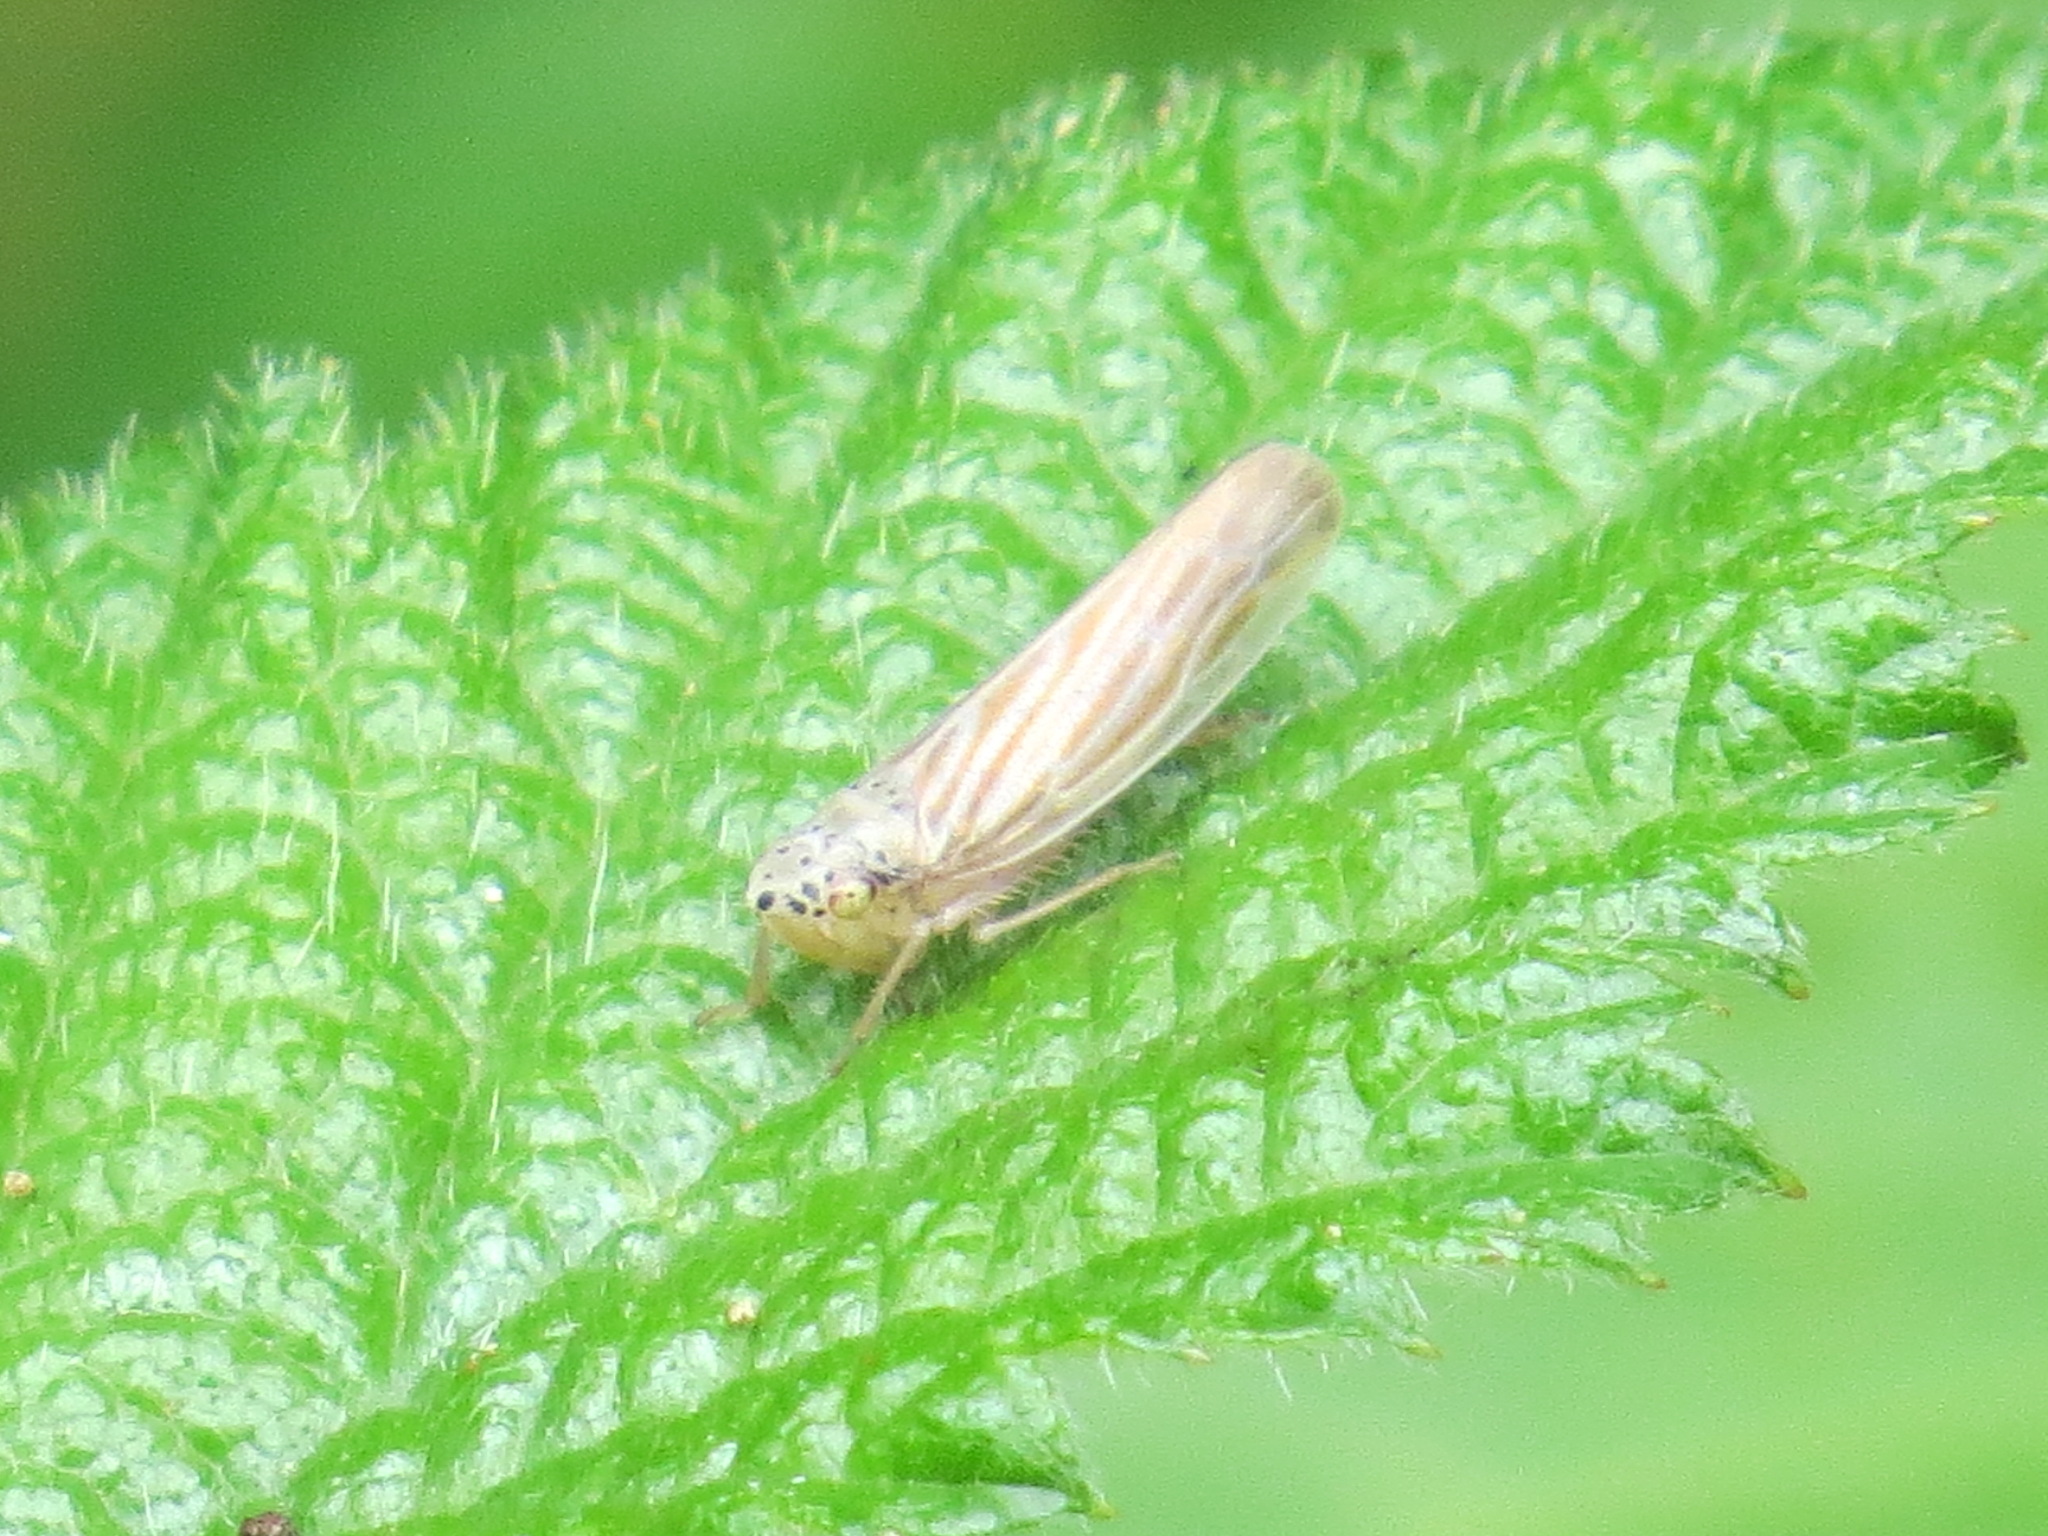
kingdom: Animalia
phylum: Arthropoda
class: Insecta
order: Hemiptera
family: Cicadellidae
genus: Pagaronia
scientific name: Pagaronia triunata
